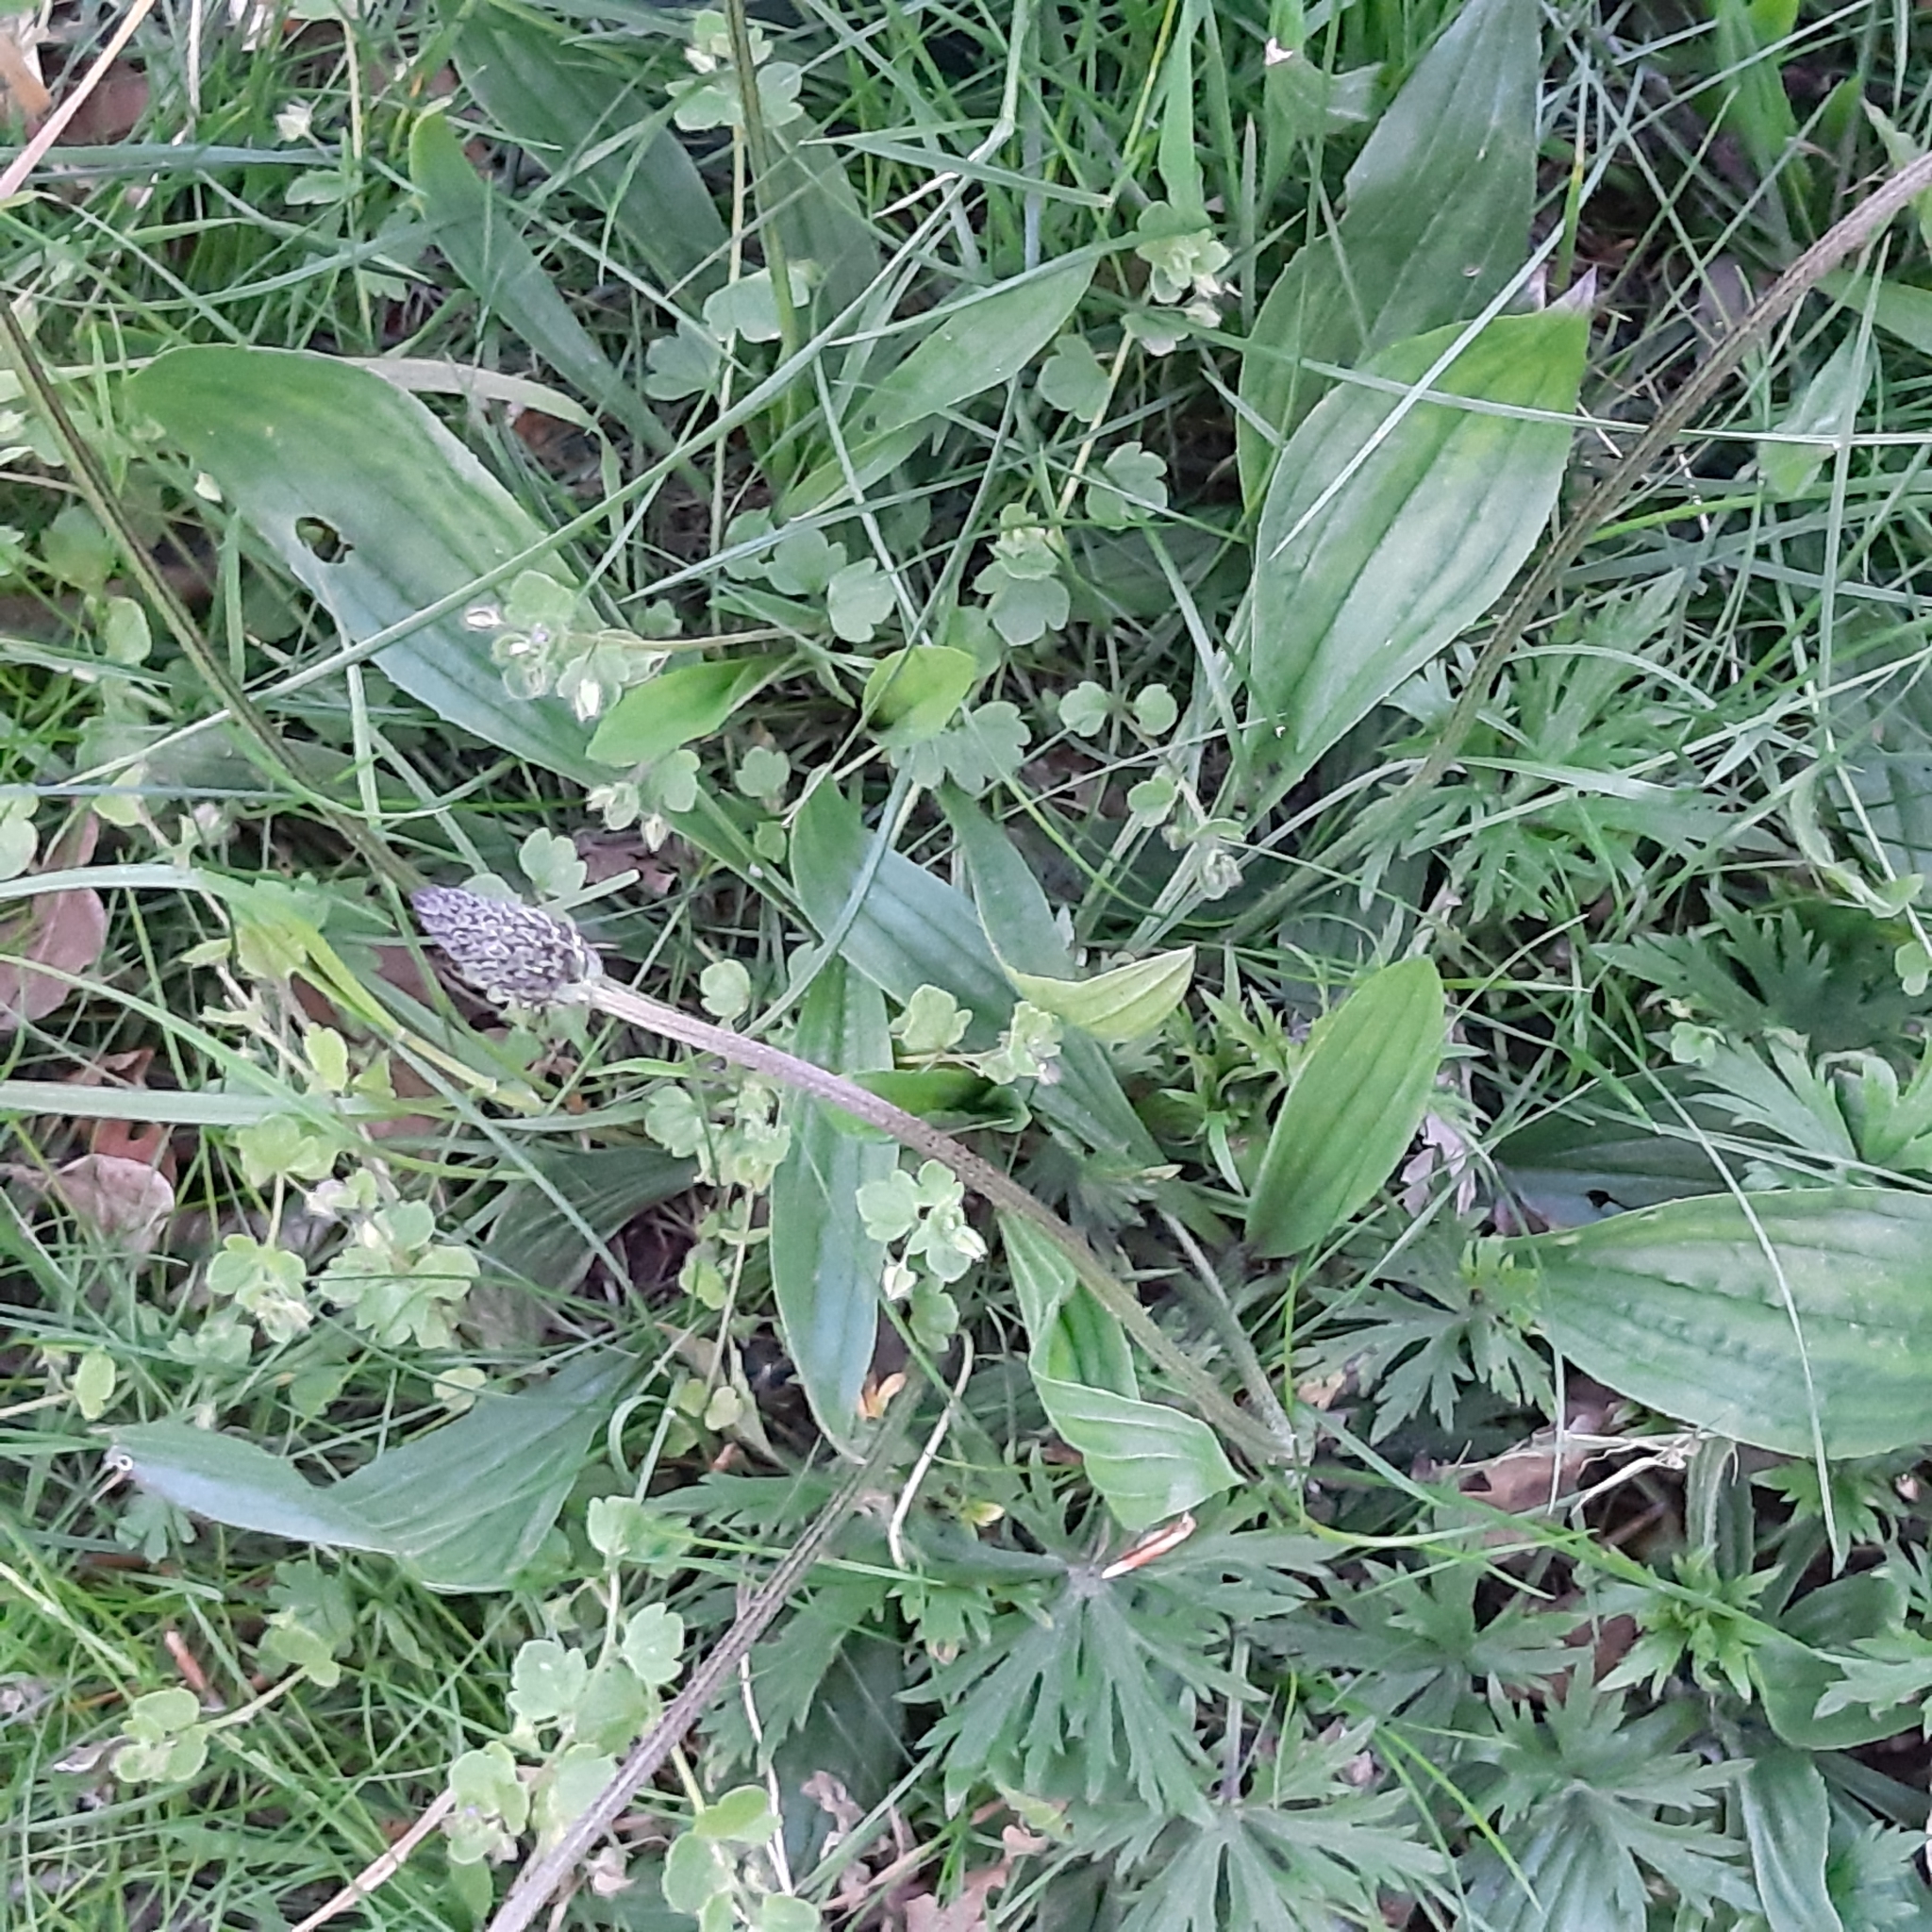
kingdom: Plantae
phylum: Tracheophyta
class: Magnoliopsida
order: Lamiales
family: Plantaginaceae
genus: Plantago
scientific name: Plantago lanceolata
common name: Ribwort plantain
